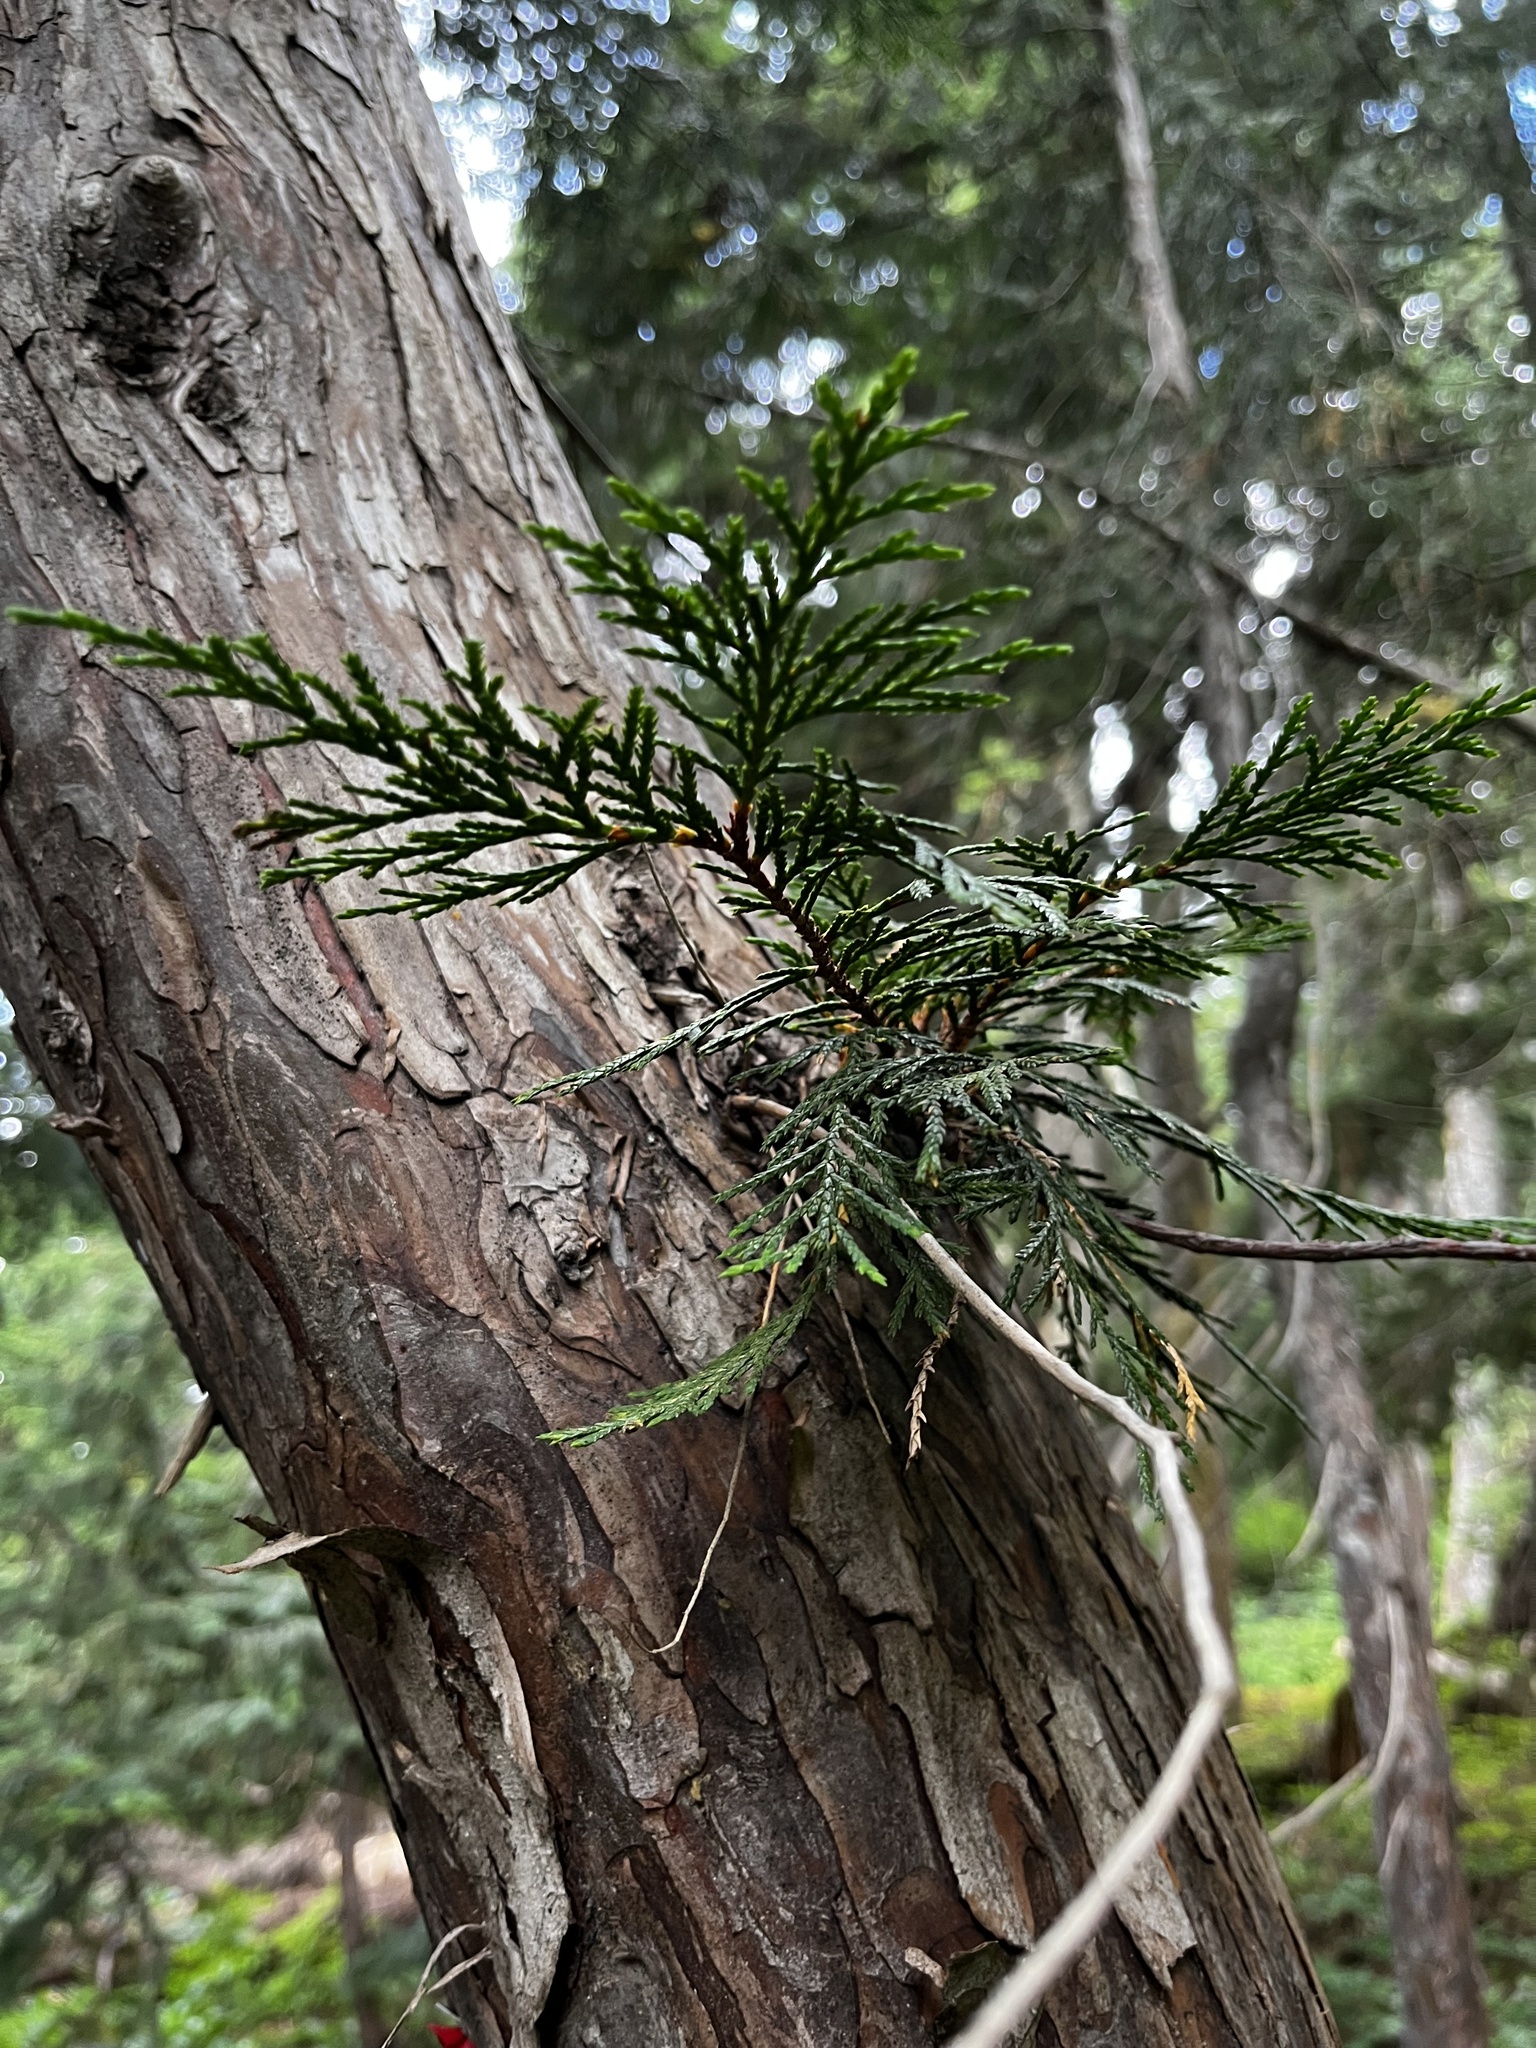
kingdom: Plantae
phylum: Tracheophyta
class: Pinopsida
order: Pinales
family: Cupressaceae
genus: Xanthocyparis
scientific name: Xanthocyparis nootkatensis
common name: Nootka cypress
